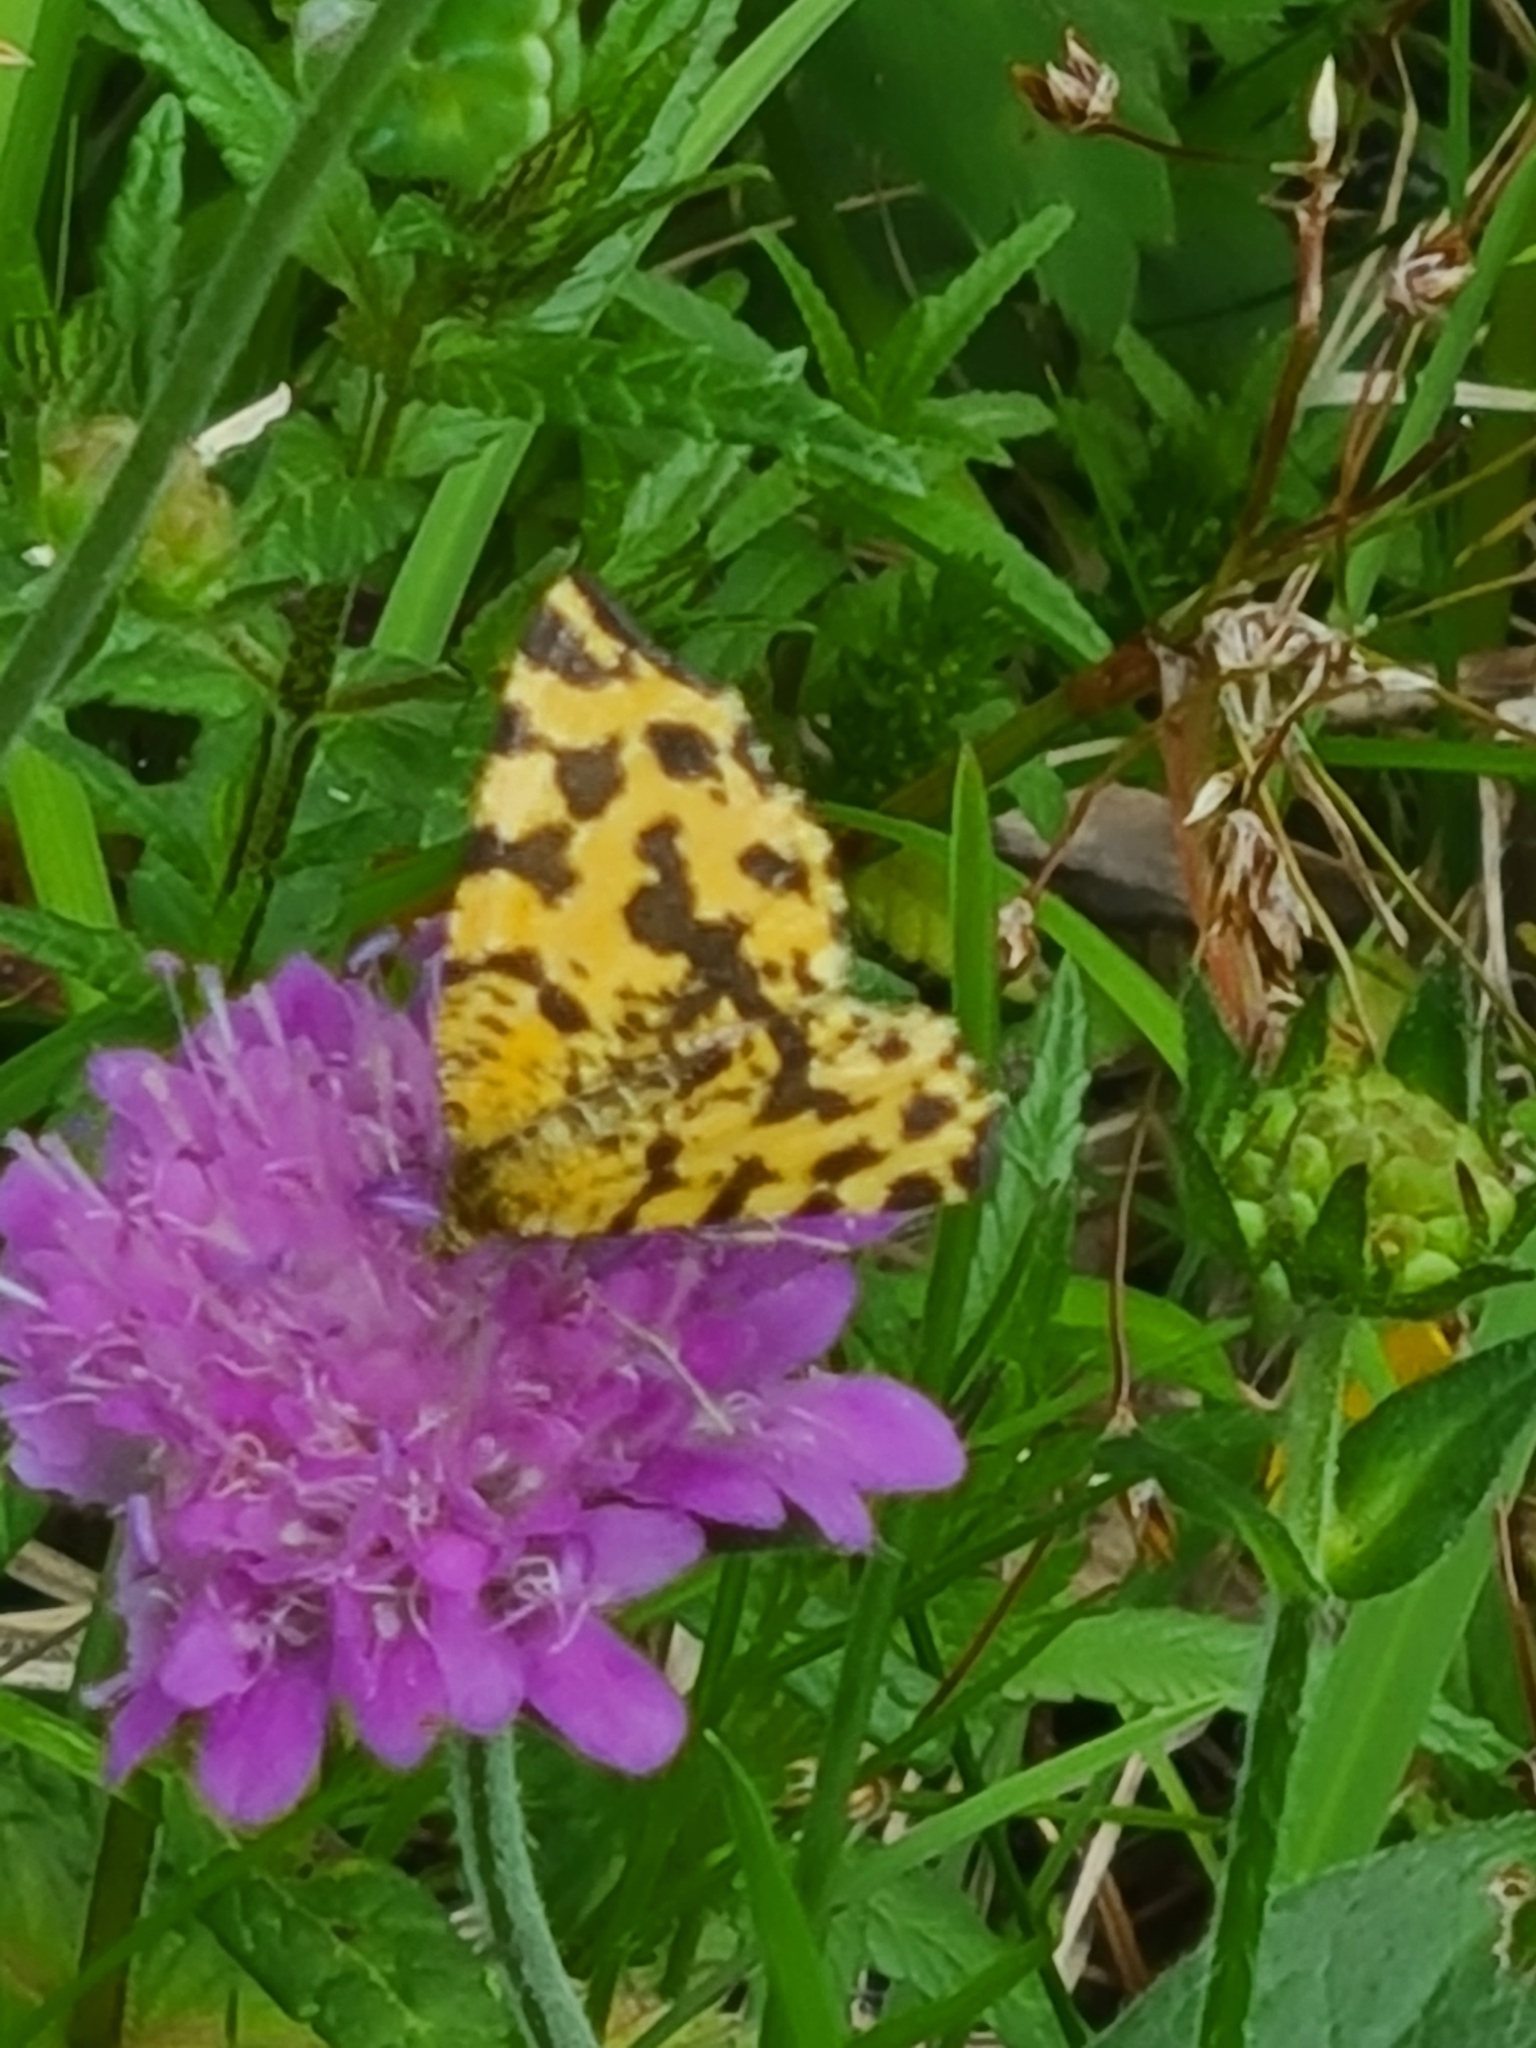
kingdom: Animalia
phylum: Arthropoda
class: Insecta
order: Lepidoptera
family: Geometridae
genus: Pseudopanthera
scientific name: Pseudopanthera macularia
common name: Speckled yellow
